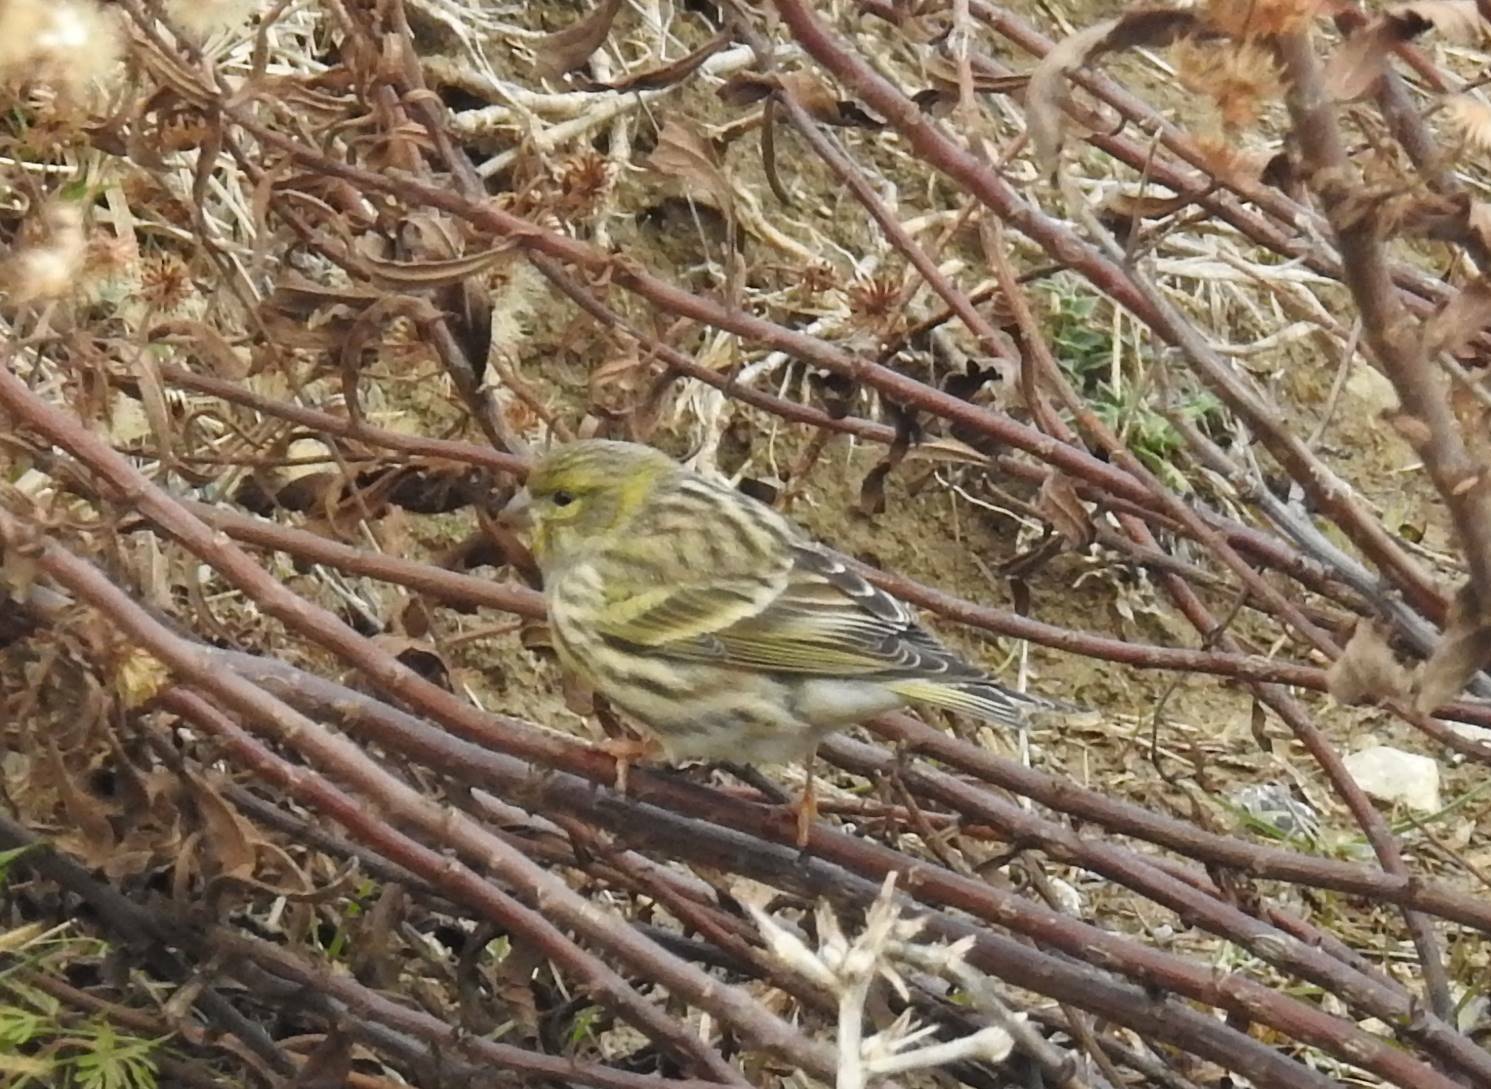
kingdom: Animalia
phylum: Chordata
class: Aves
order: Passeriformes
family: Fringillidae
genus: Serinus
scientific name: Serinus serinus
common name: European serin
